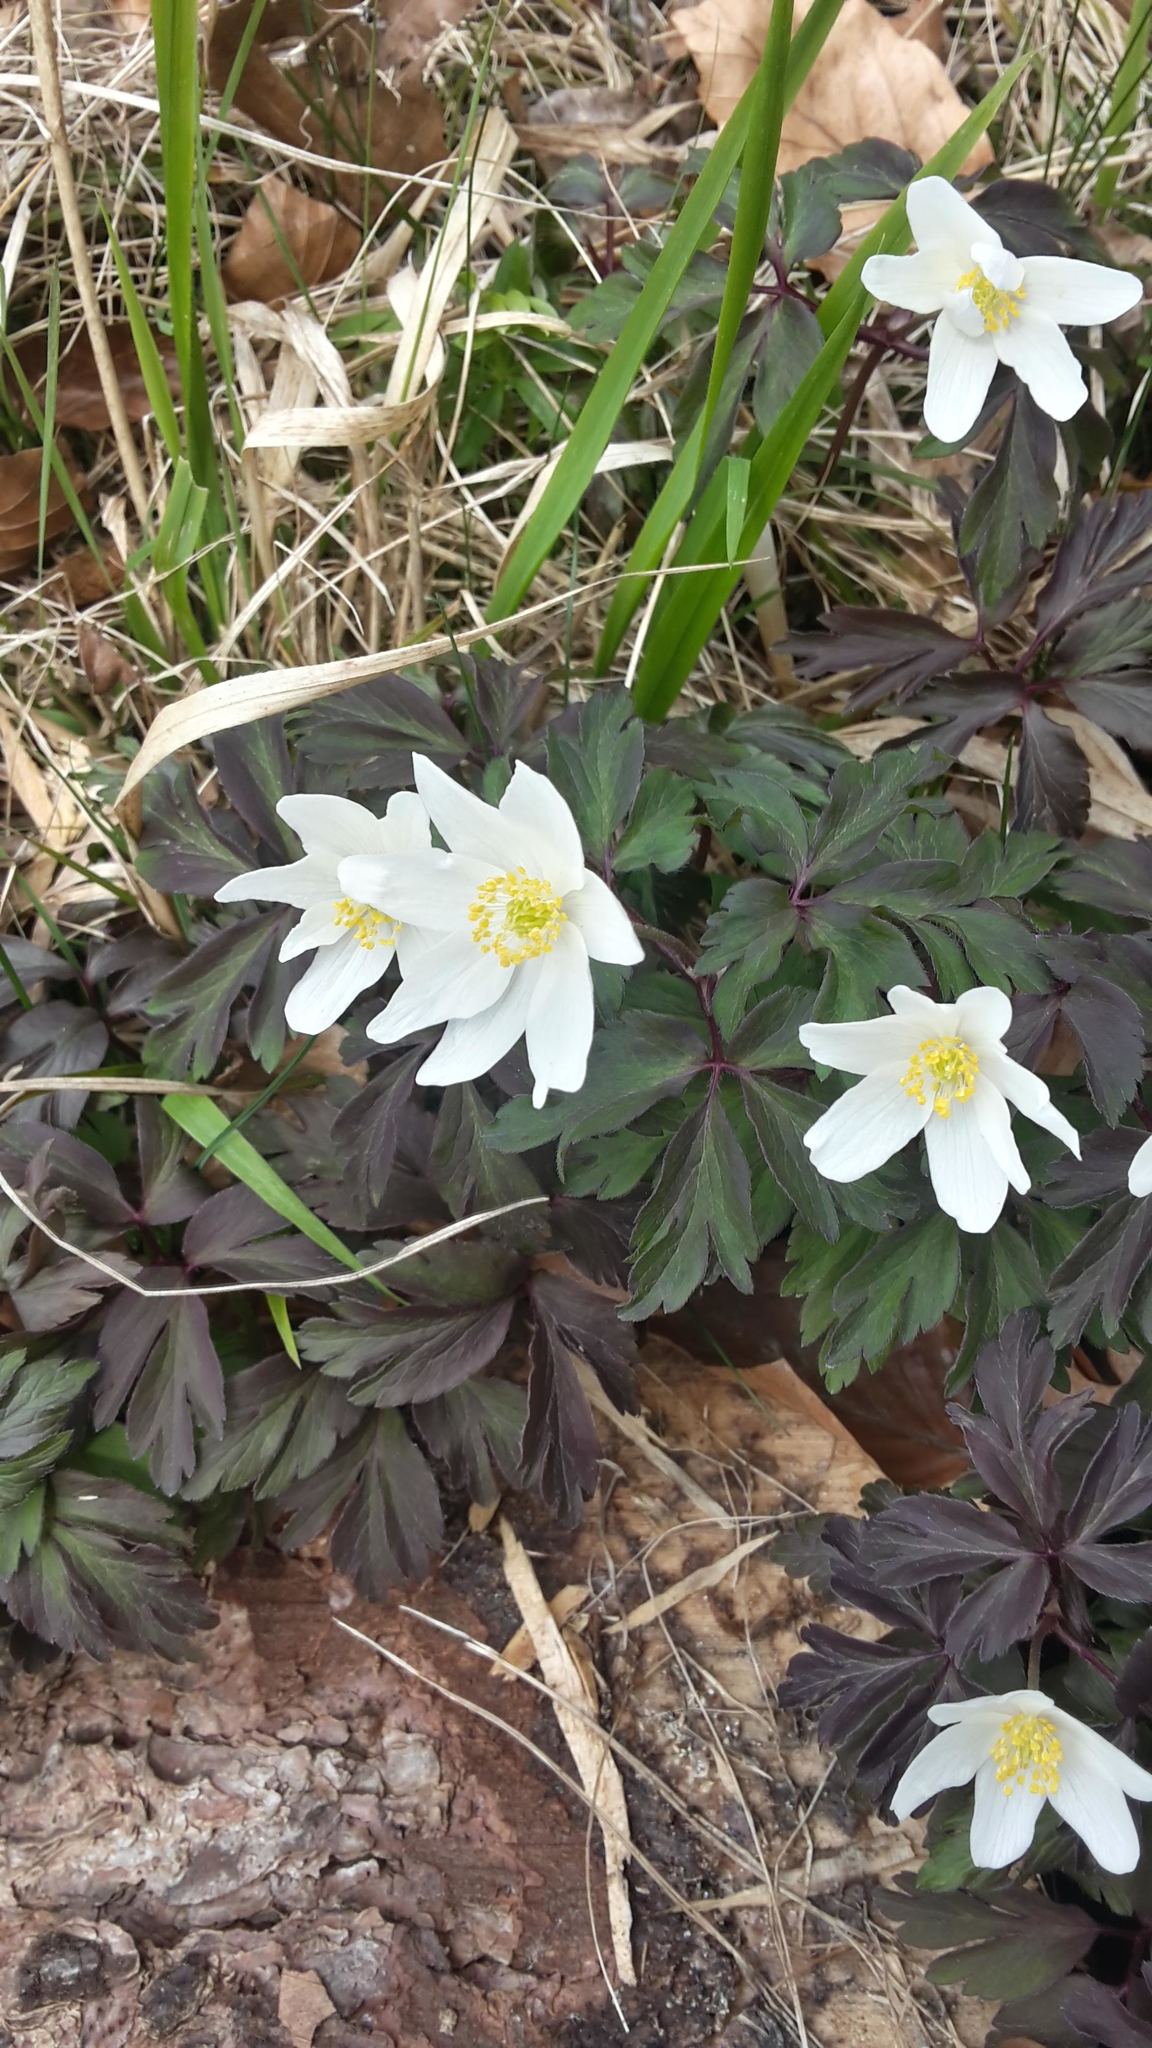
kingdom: Plantae
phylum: Tracheophyta
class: Magnoliopsida
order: Ranunculales
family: Ranunculaceae
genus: Anemone
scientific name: Anemone nemorosa
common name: Wood anemone
